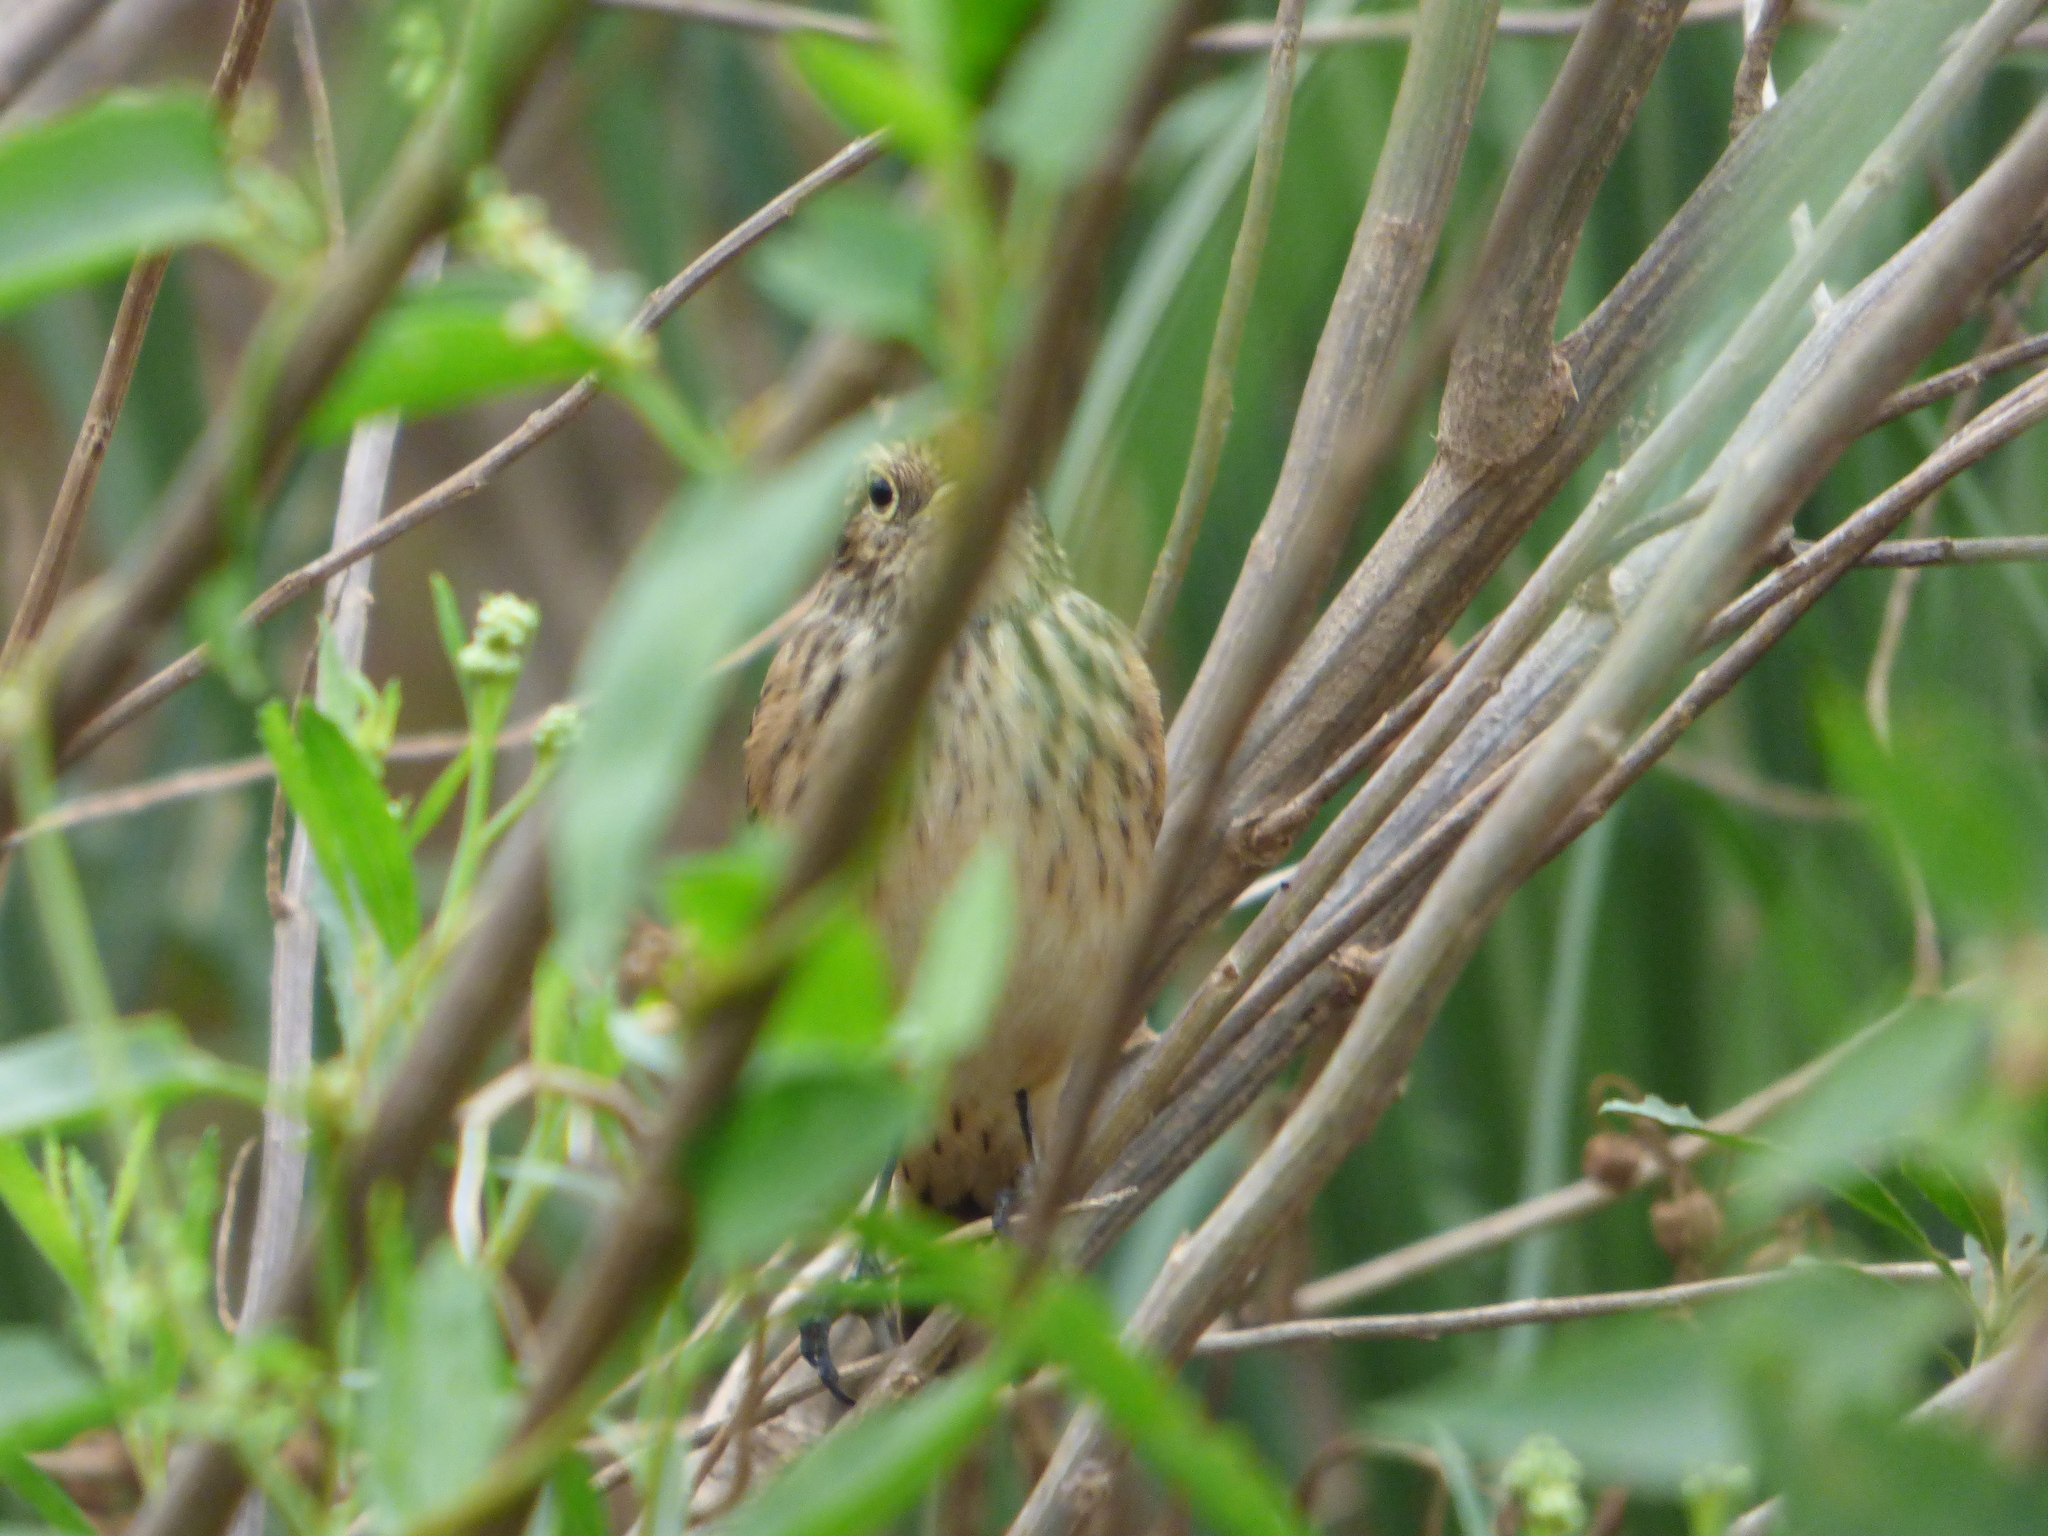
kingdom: Animalia
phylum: Chordata
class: Aves
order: Passeriformes
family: Tyrannidae
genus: Hymenops
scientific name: Hymenops perspicillatus
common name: Spectacled tyrant
